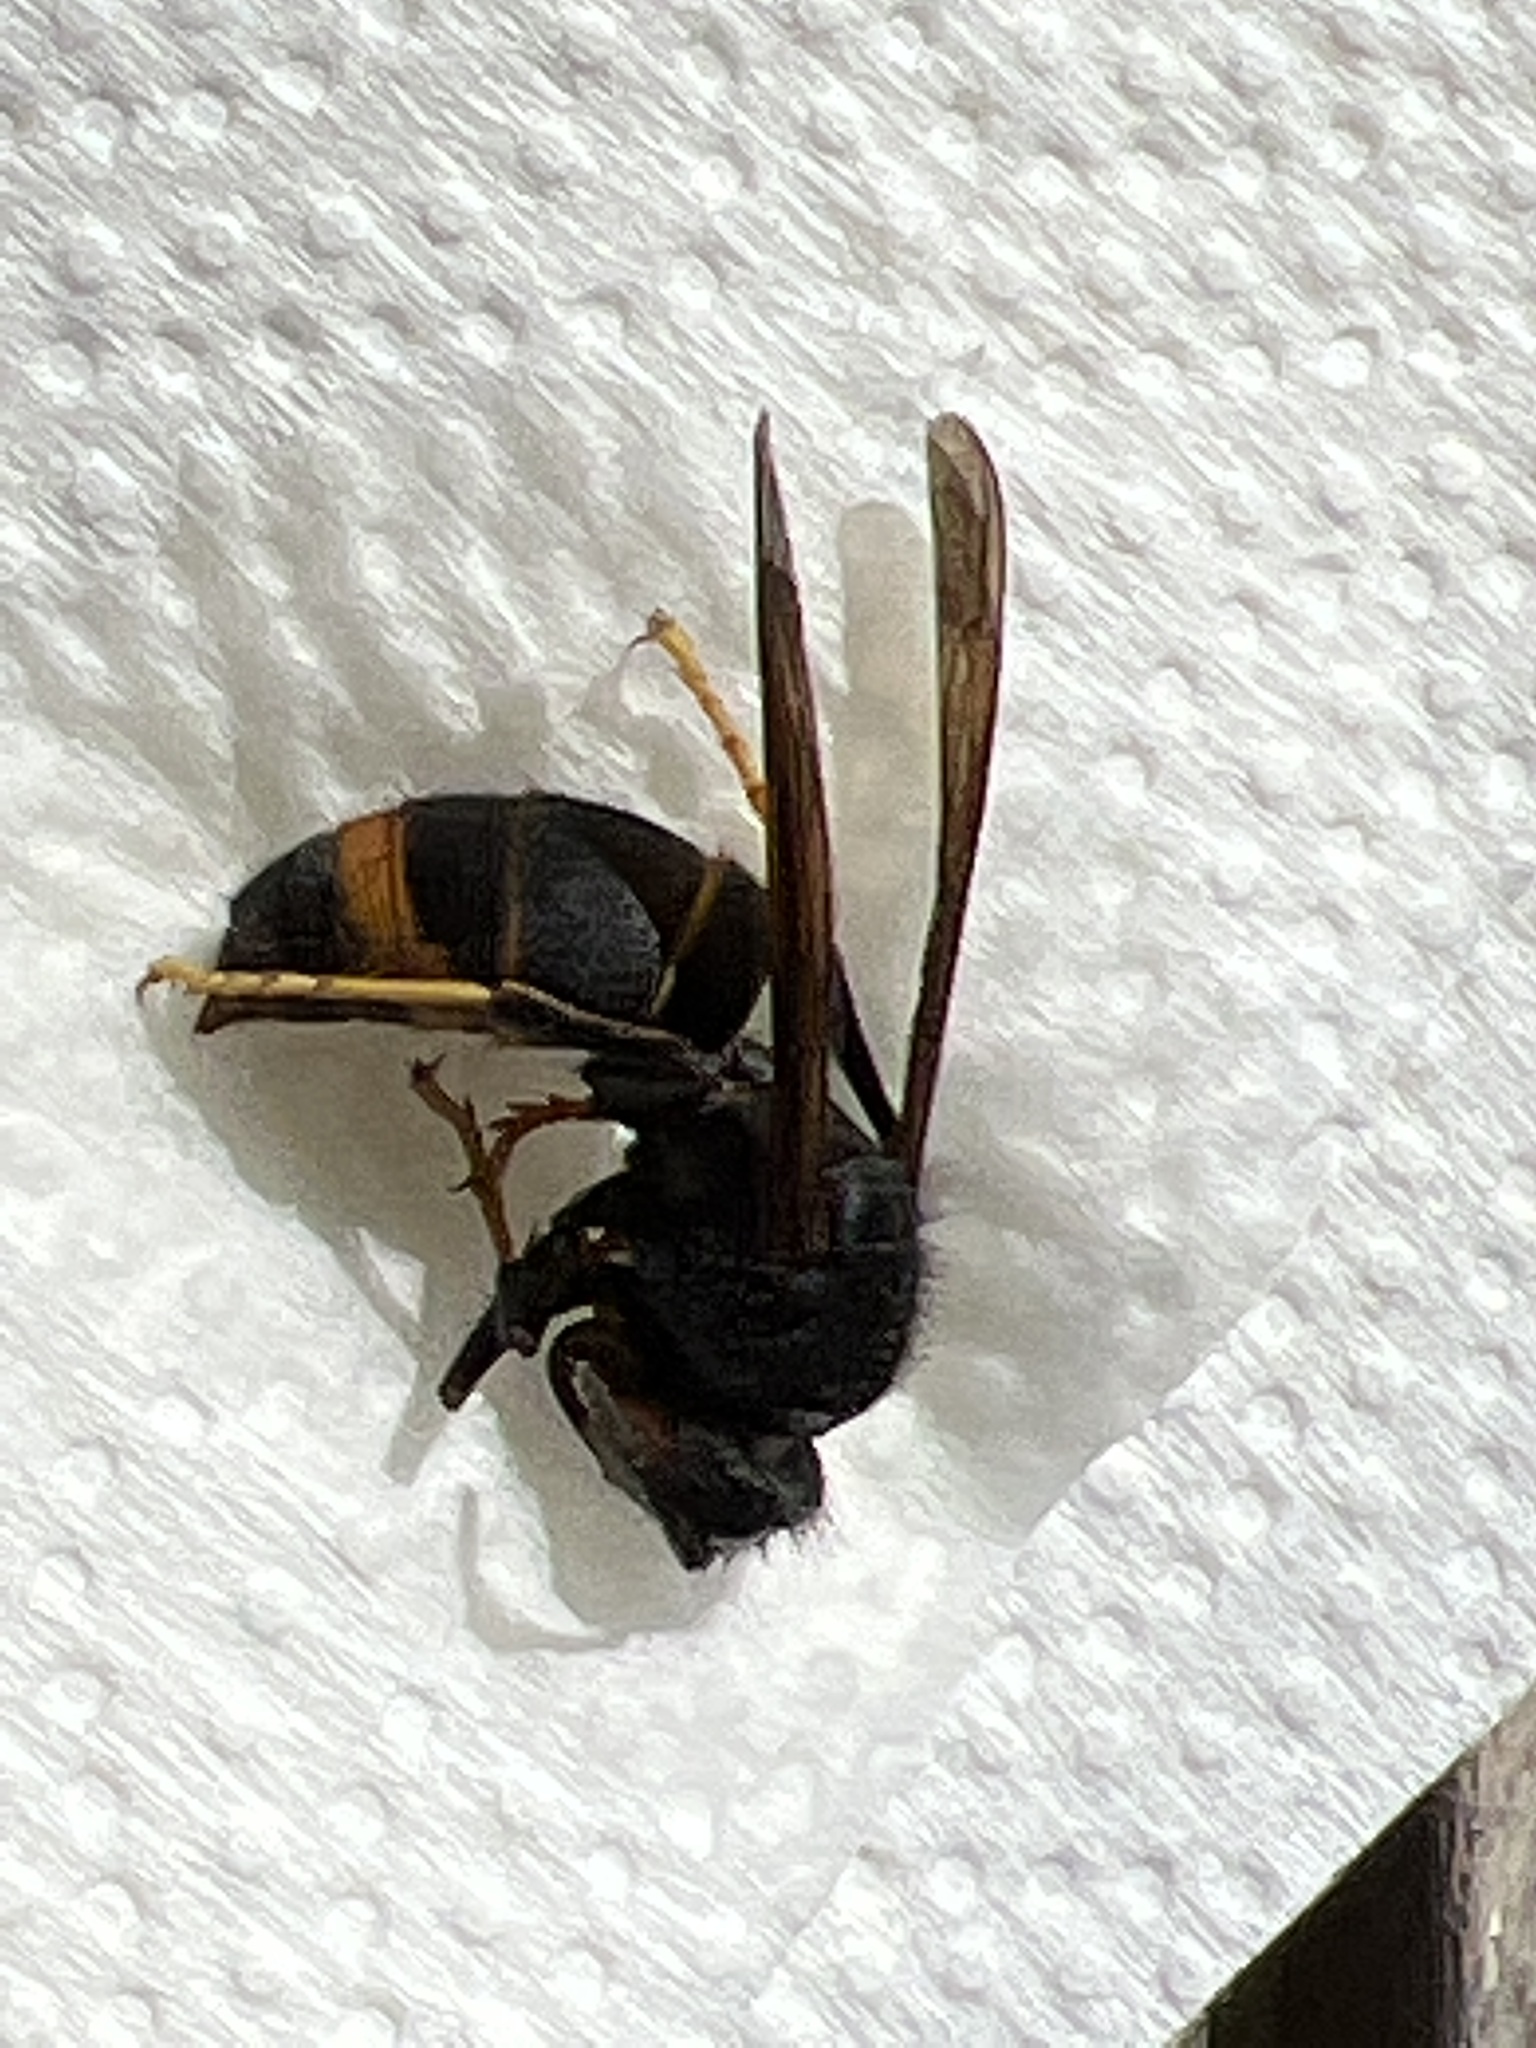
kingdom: Animalia
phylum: Arthropoda
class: Insecta
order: Hymenoptera
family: Vespidae
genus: Vespa
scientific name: Vespa velutina
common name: Asian hornet
